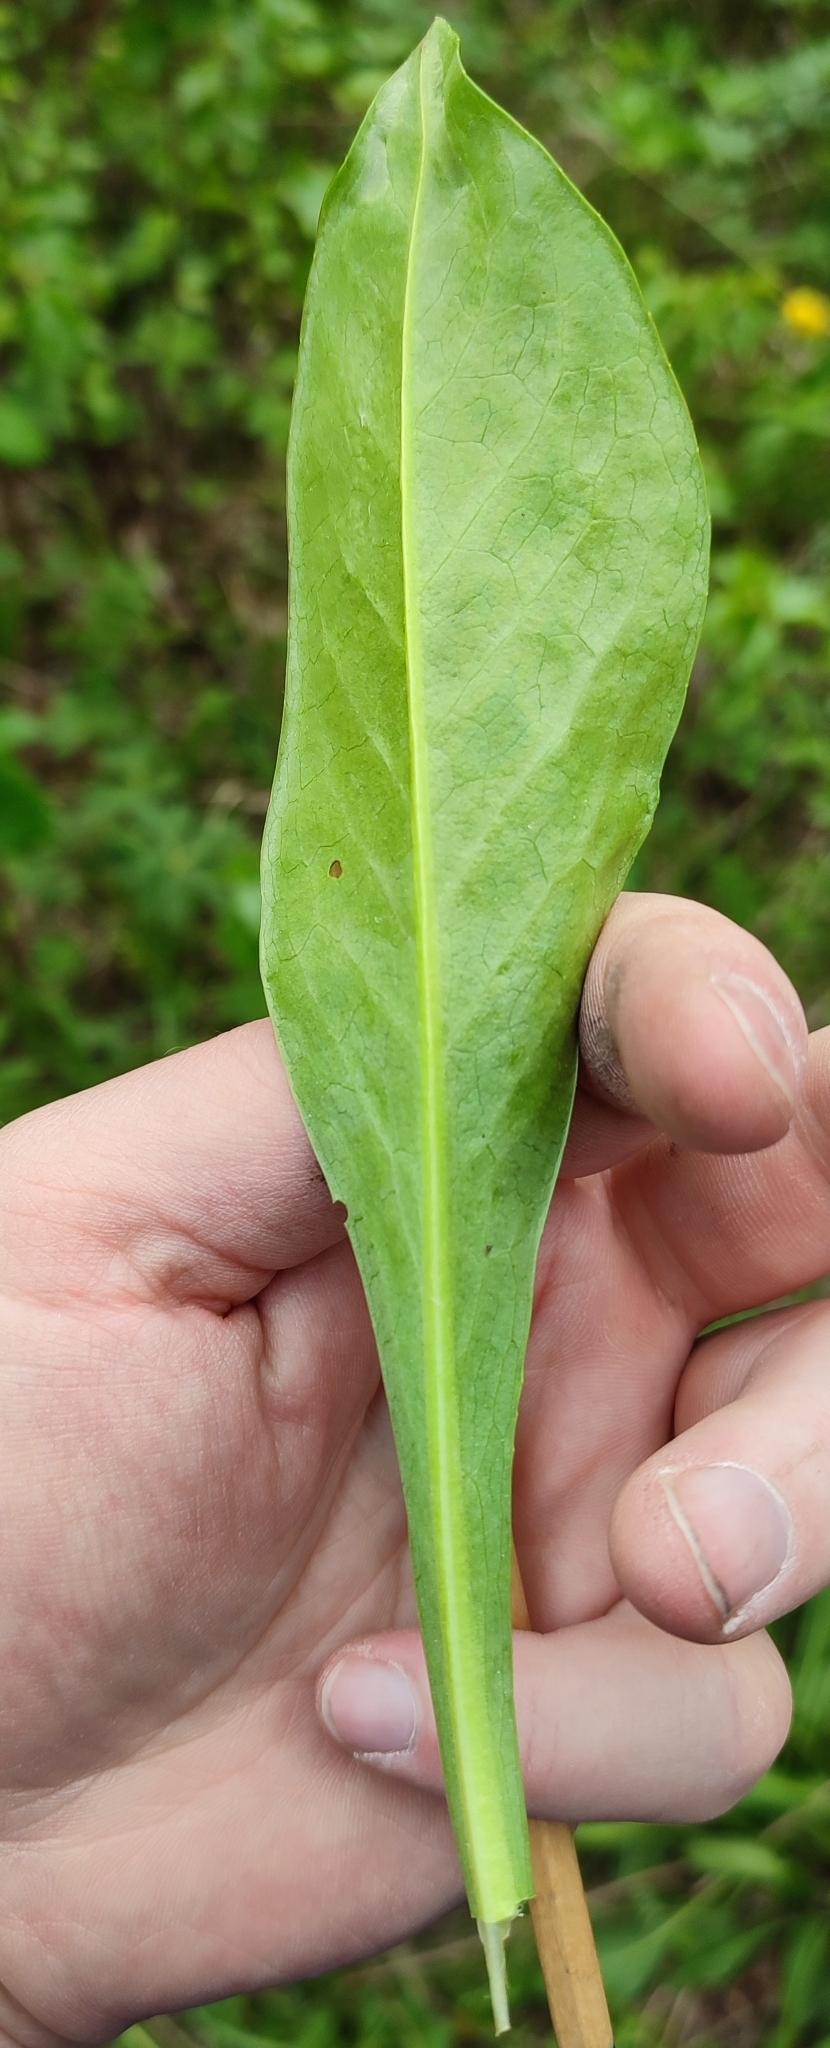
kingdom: Plantae
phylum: Tracheophyta
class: Magnoliopsida
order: Dipsacales
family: Caprifoliaceae
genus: Succisa
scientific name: Succisa pratensis
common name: Devil's-bit
